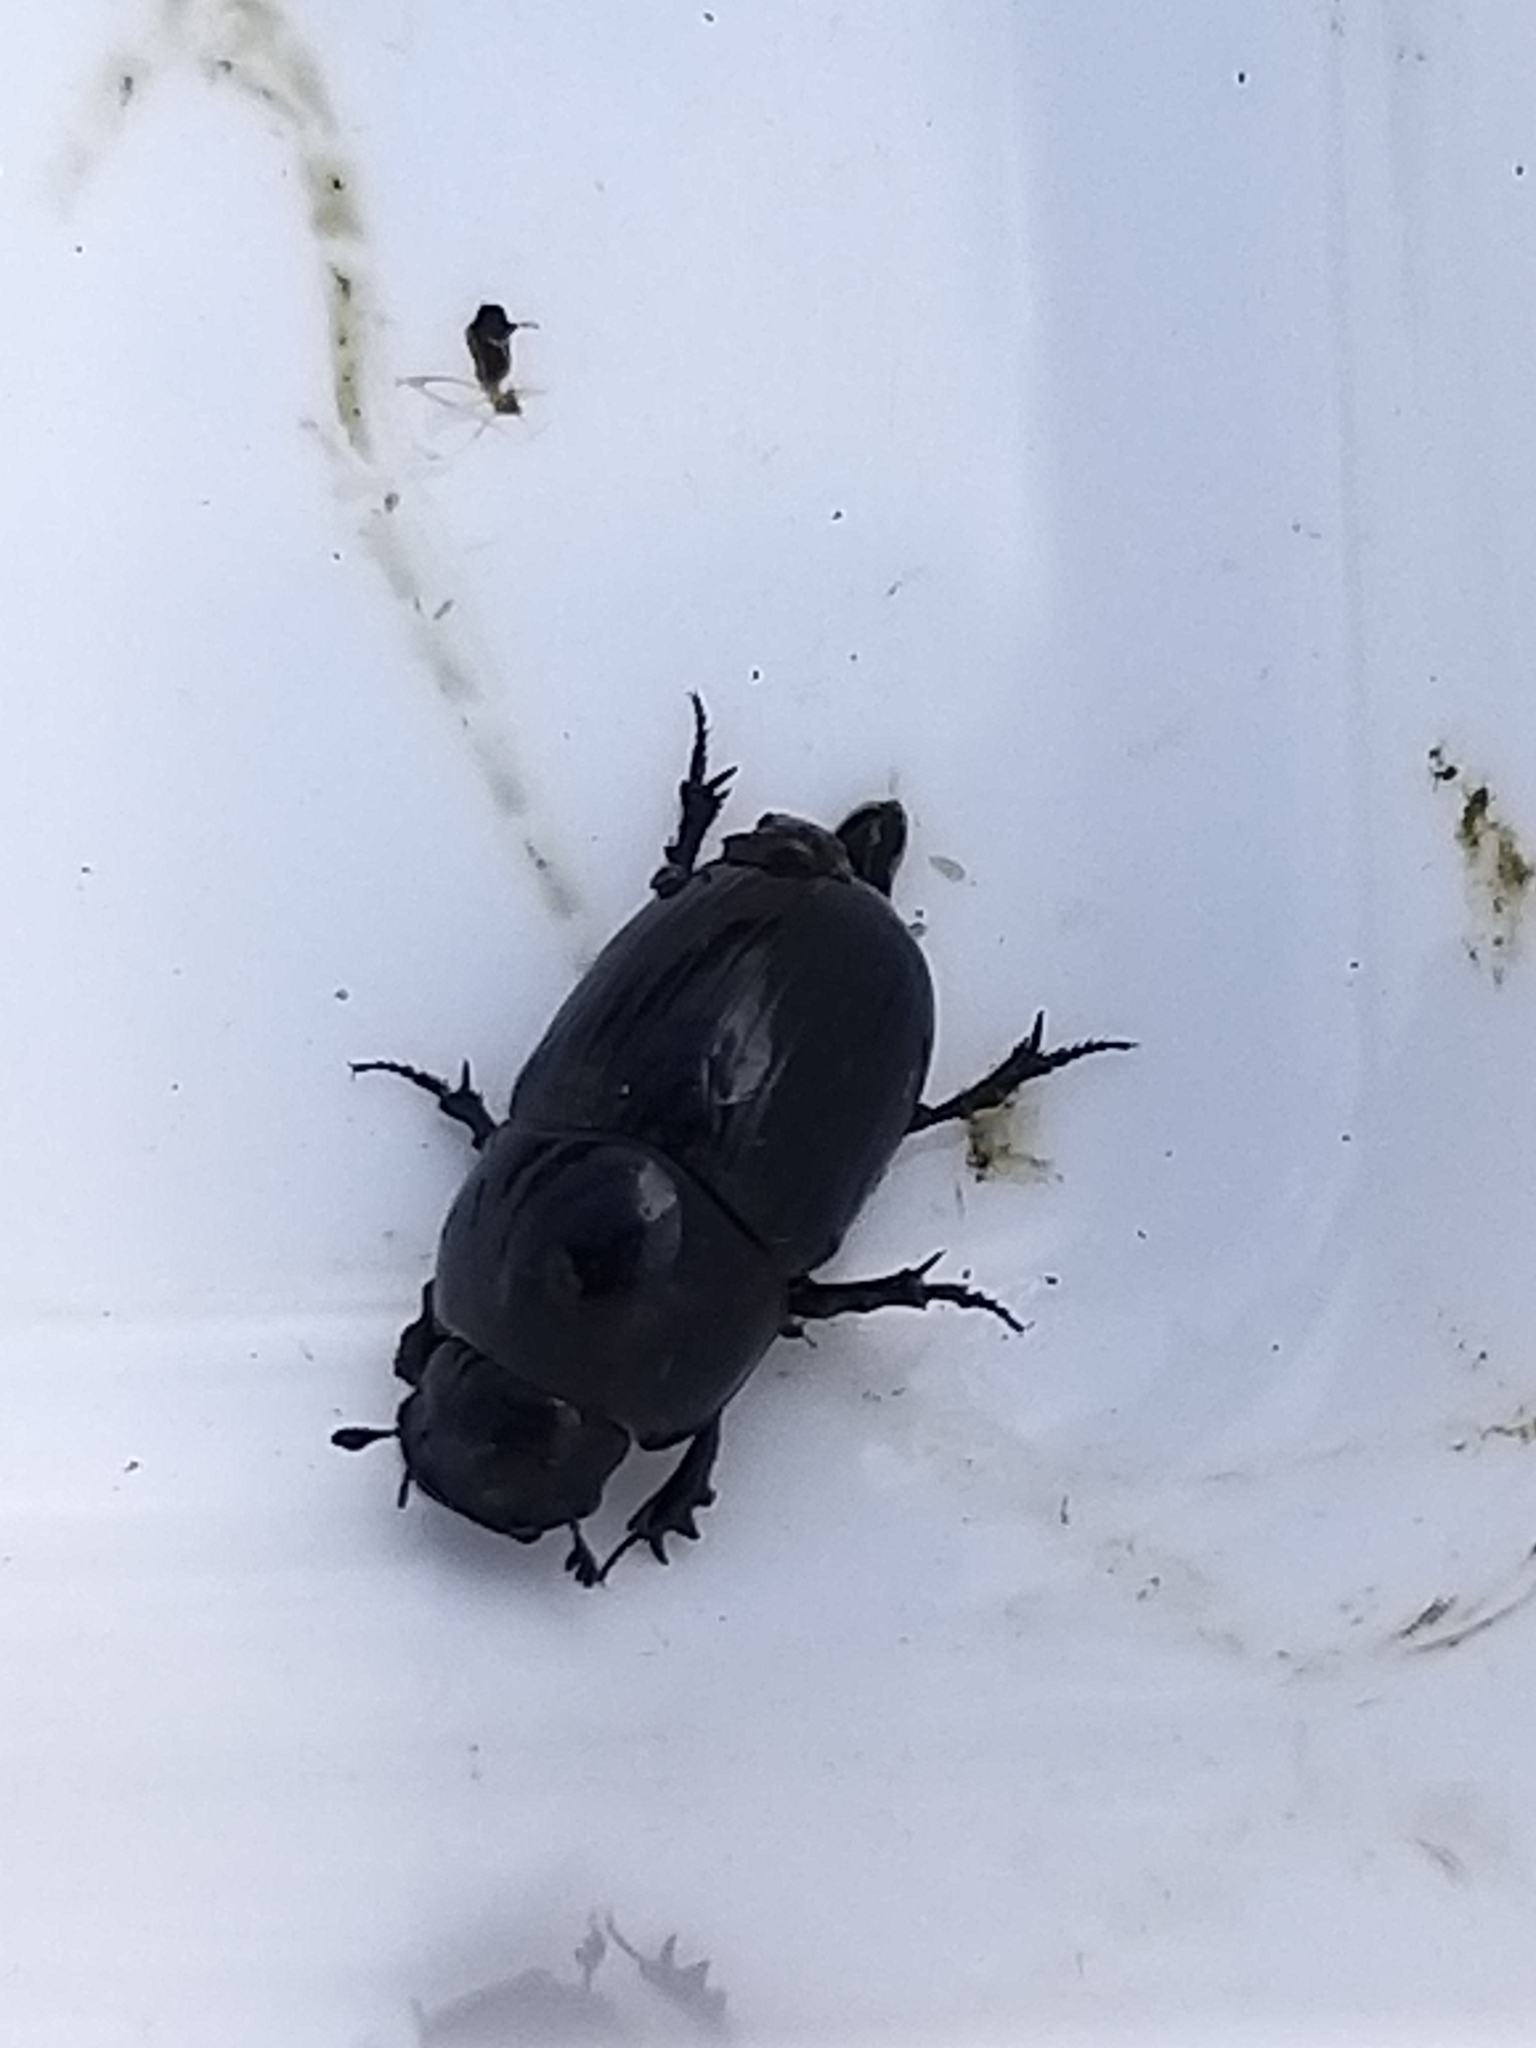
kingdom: Animalia
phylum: Arthropoda
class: Insecta
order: Coleoptera
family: Scarabaeidae
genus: Teuchestes
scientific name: Teuchestes fossor
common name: Digger small dung beetle
